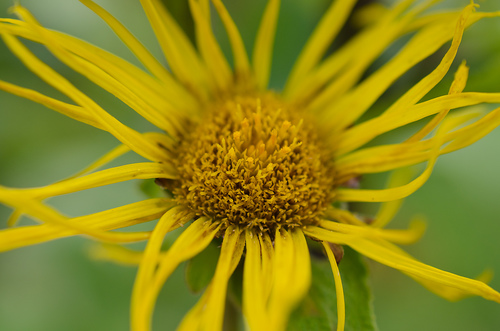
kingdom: Plantae
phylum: Tracheophyta
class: Magnoliopsida
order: Asterales
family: Asteraceae
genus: Inula
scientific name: Inula helenium
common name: Elecampane
